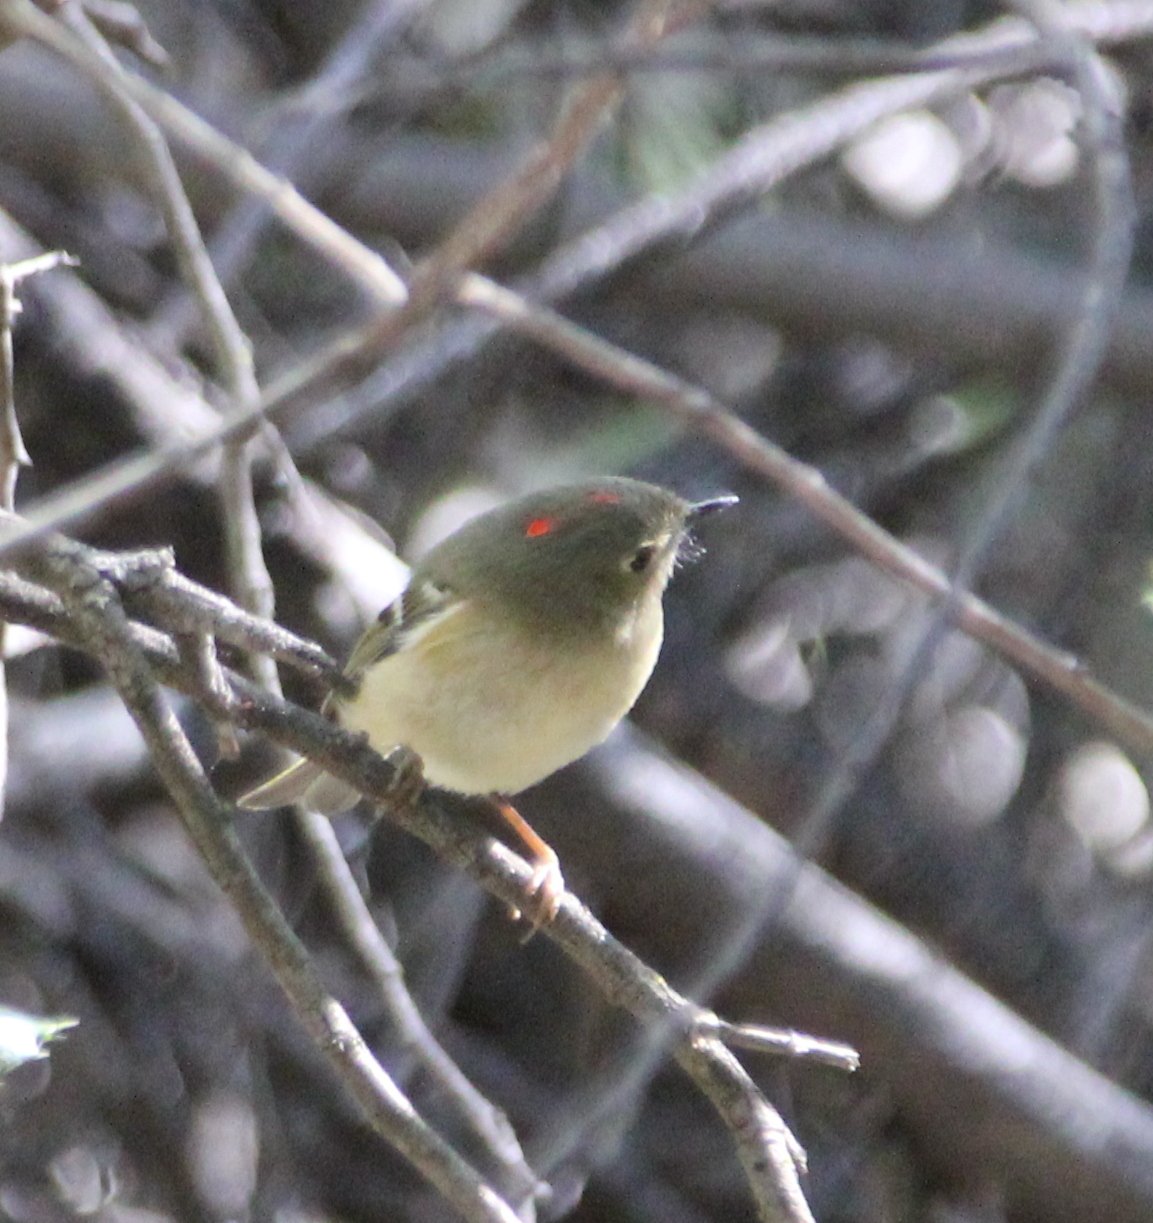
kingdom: Animalia
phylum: Chordata
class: Aves
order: Passeriformes
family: Regulidae
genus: Regulus
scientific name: Regulus calendula
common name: Ruby-crowned kinglet
